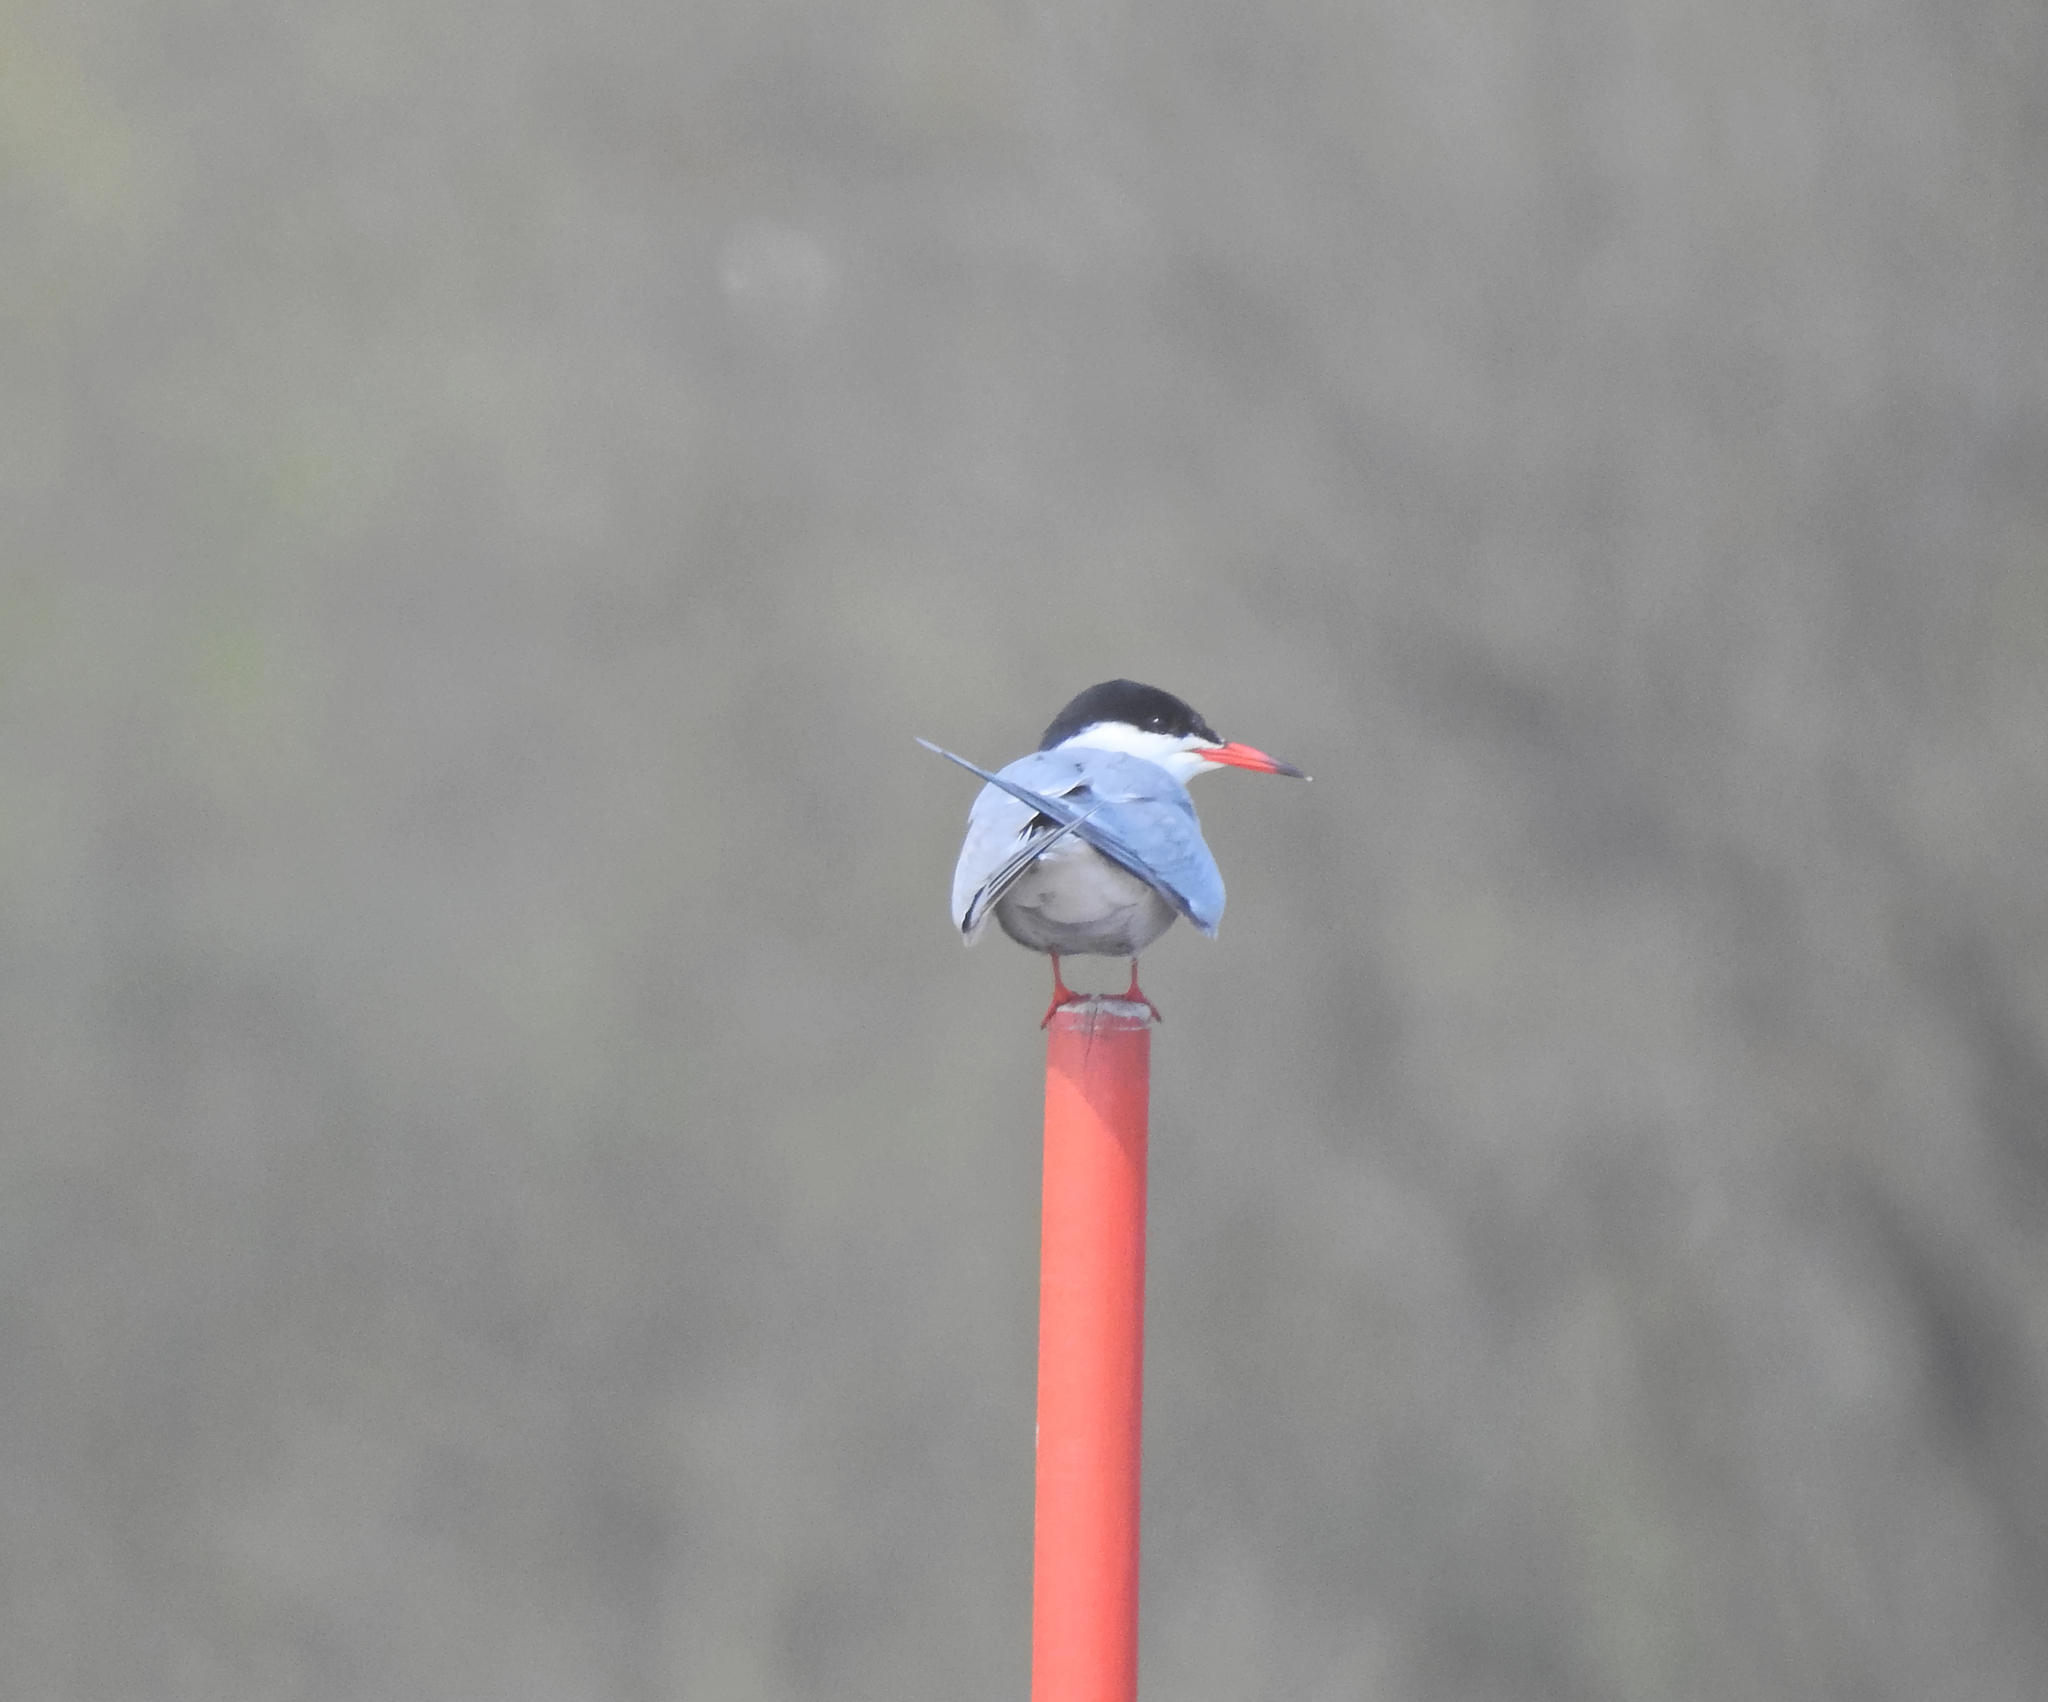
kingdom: Animalia
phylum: Chordata
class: Aves
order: Charadriiformes
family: Laridae
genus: Sterna
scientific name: Sterna hirundo
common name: Common tern
